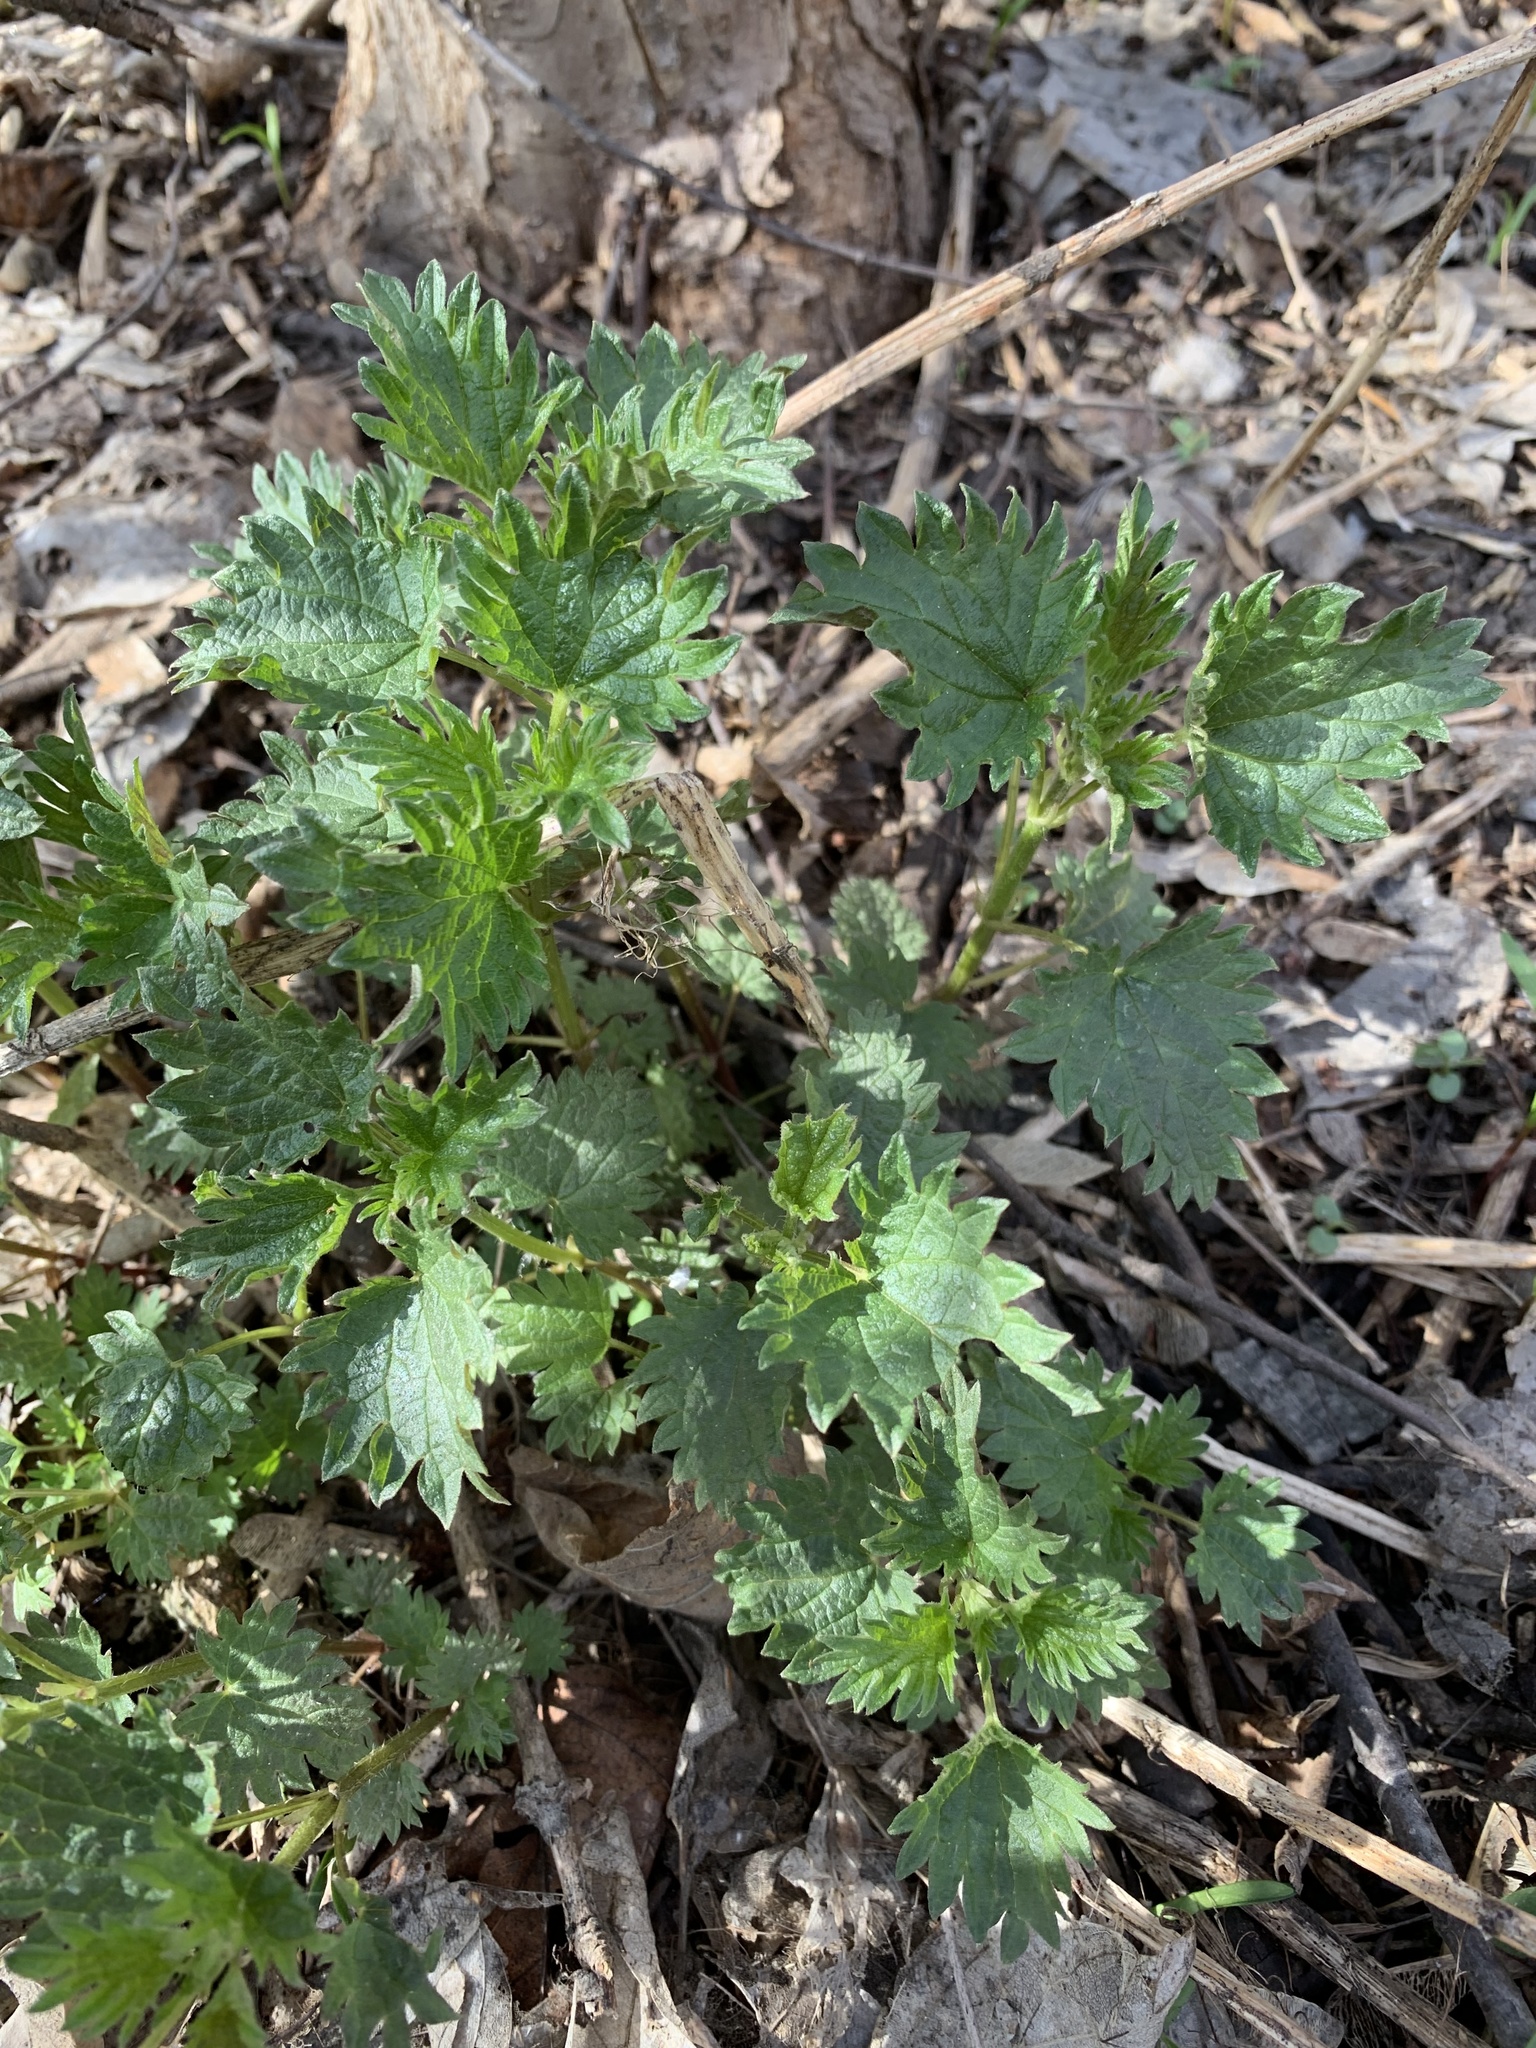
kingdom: Plantae
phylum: Tracheophyta
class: Magnoliopsida
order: Rosales
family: Urticaceae
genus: Urtica
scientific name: Urtica dioica
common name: Common nettle
